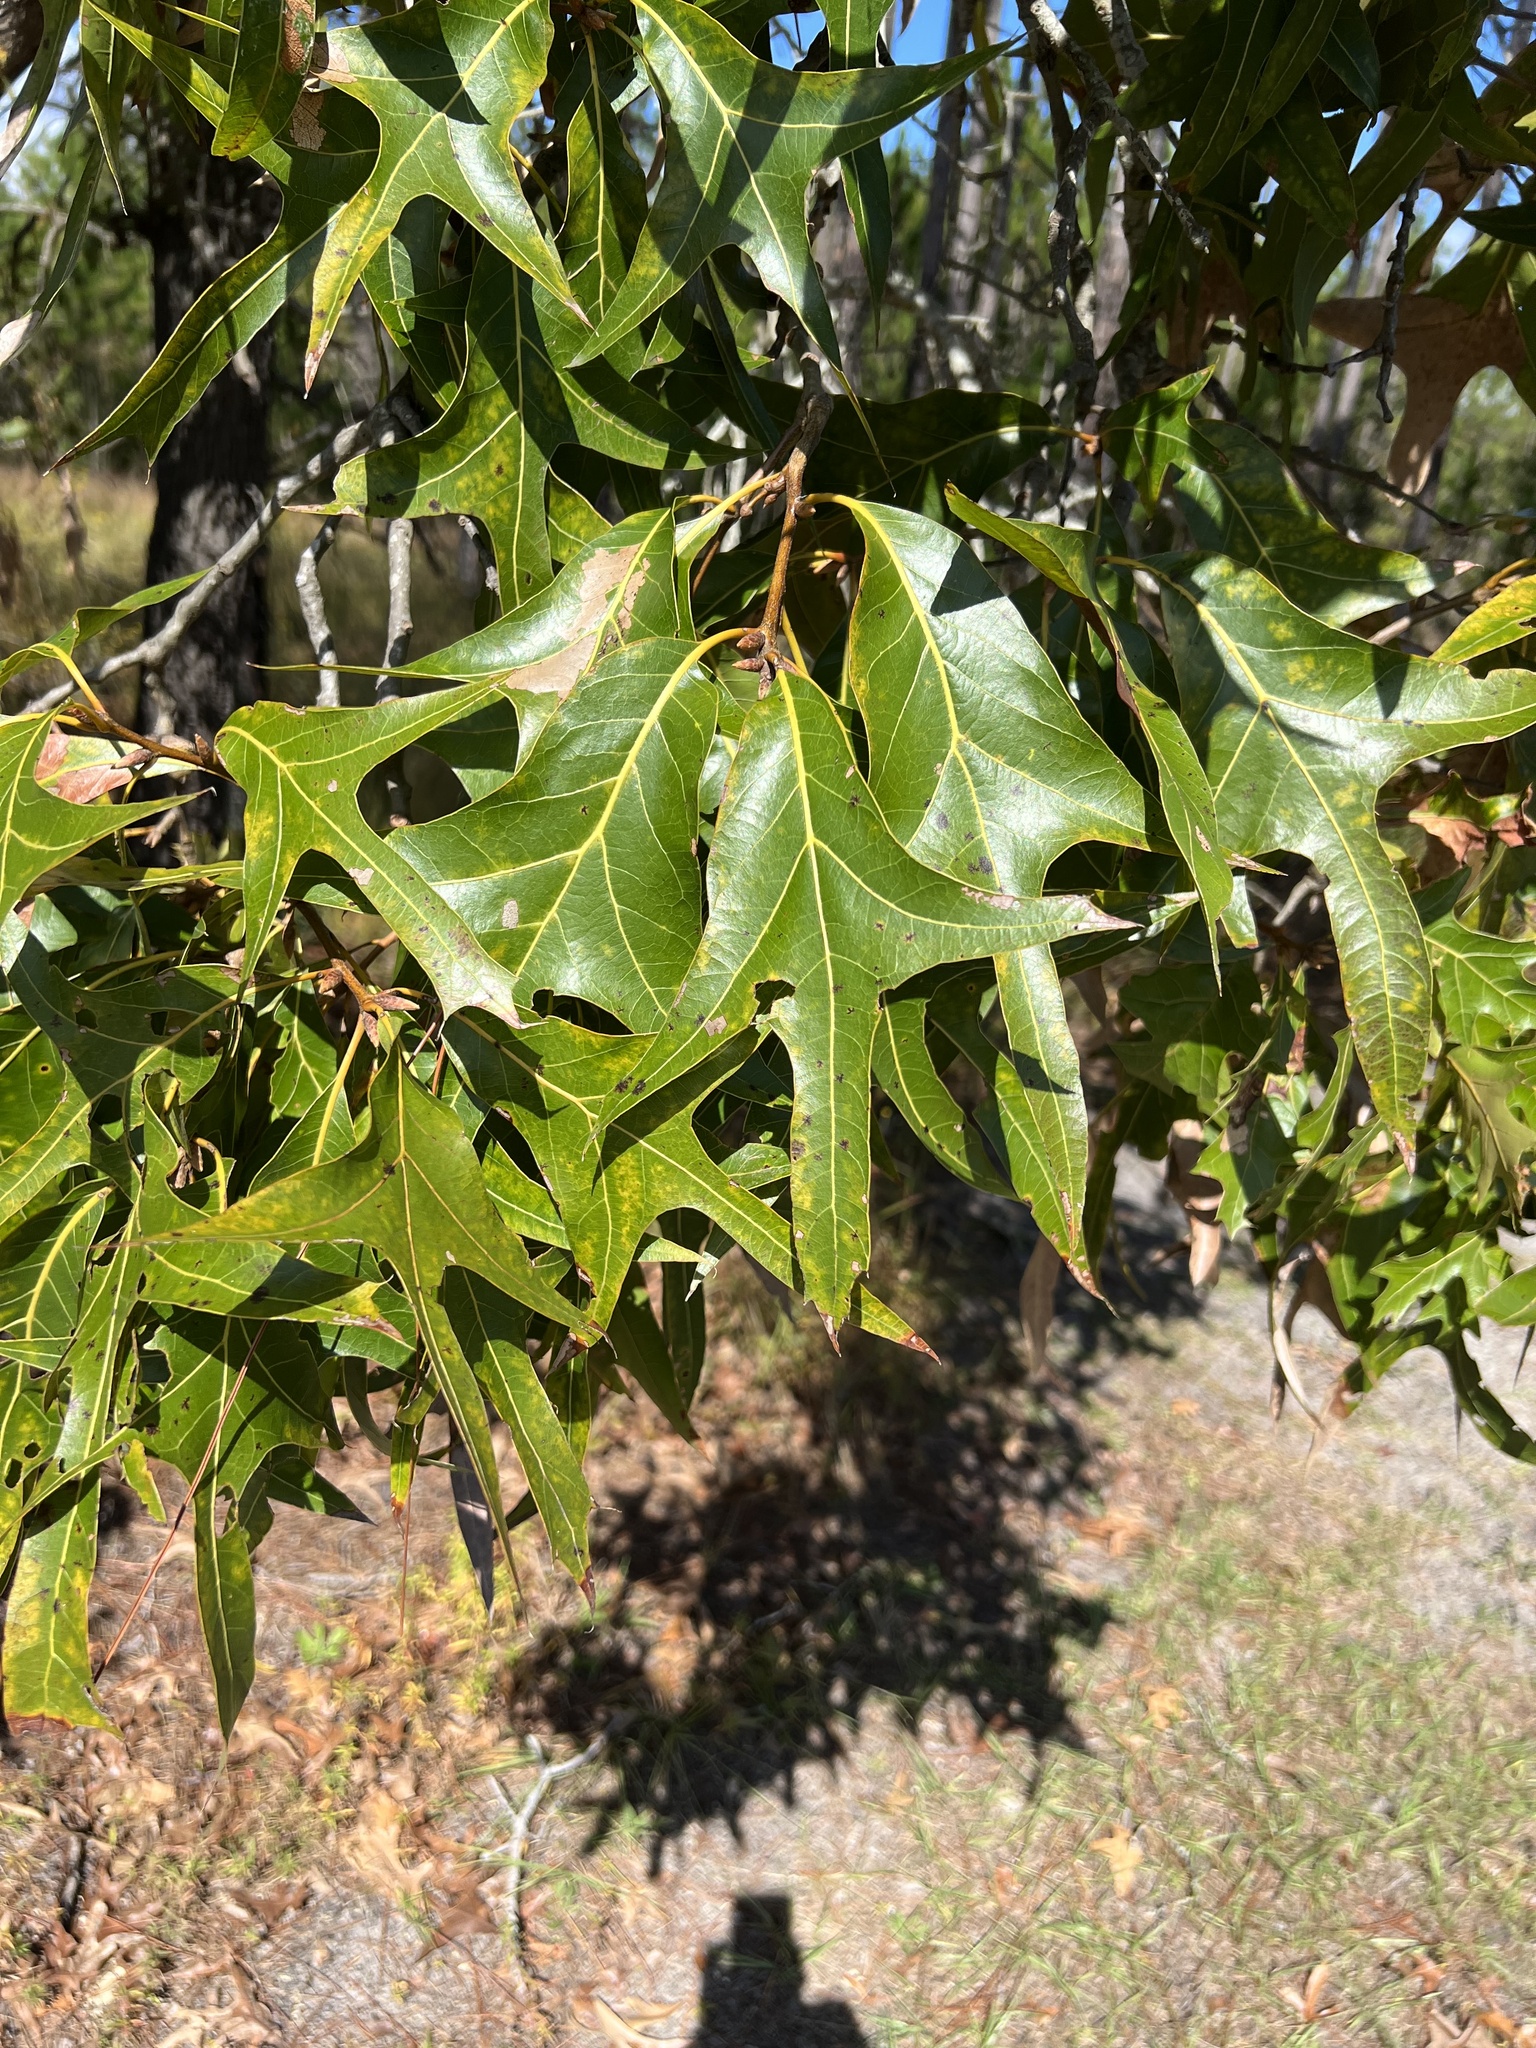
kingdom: Plantae
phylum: Tracheophyta
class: Magnoliopsida
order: Fagales
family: Fagaceae
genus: Quercus
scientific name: Quercus laevis
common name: Turkey oak
